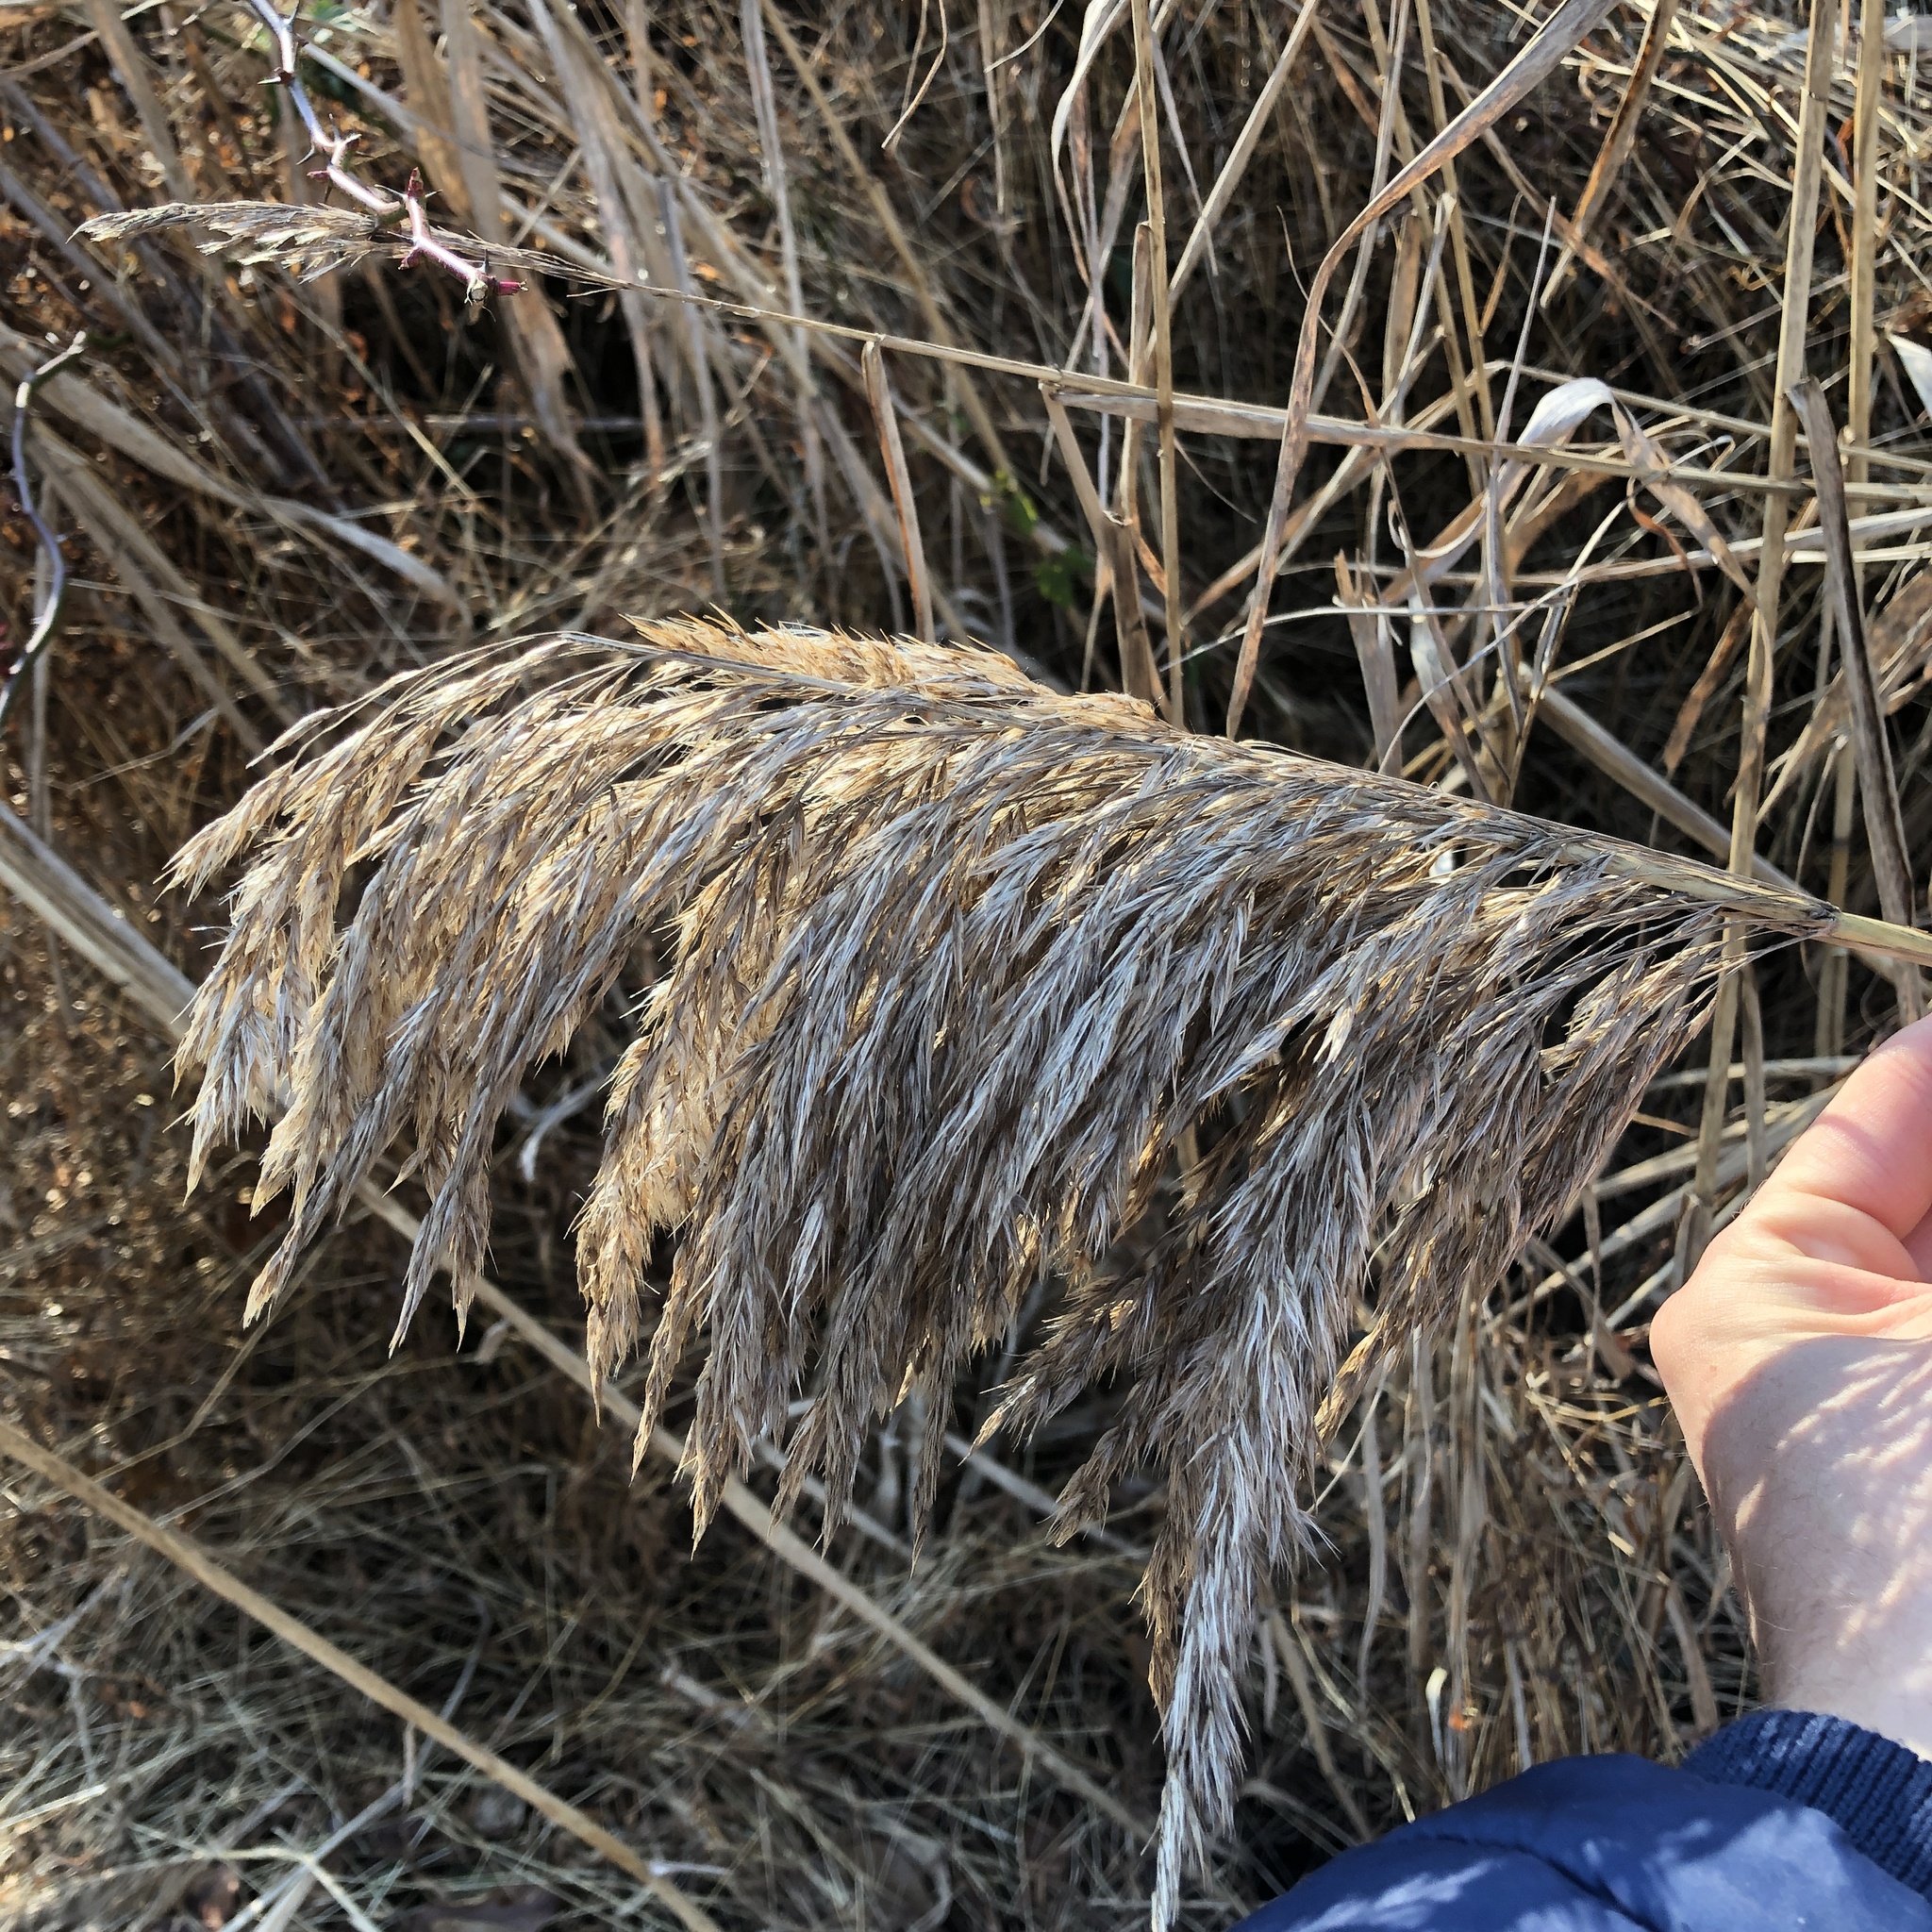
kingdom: Plantae
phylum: Tracheophyta
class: Liliopsida
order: Poales
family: Poaceae
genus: Phragmites
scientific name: Phragmites australis
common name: Common reed
